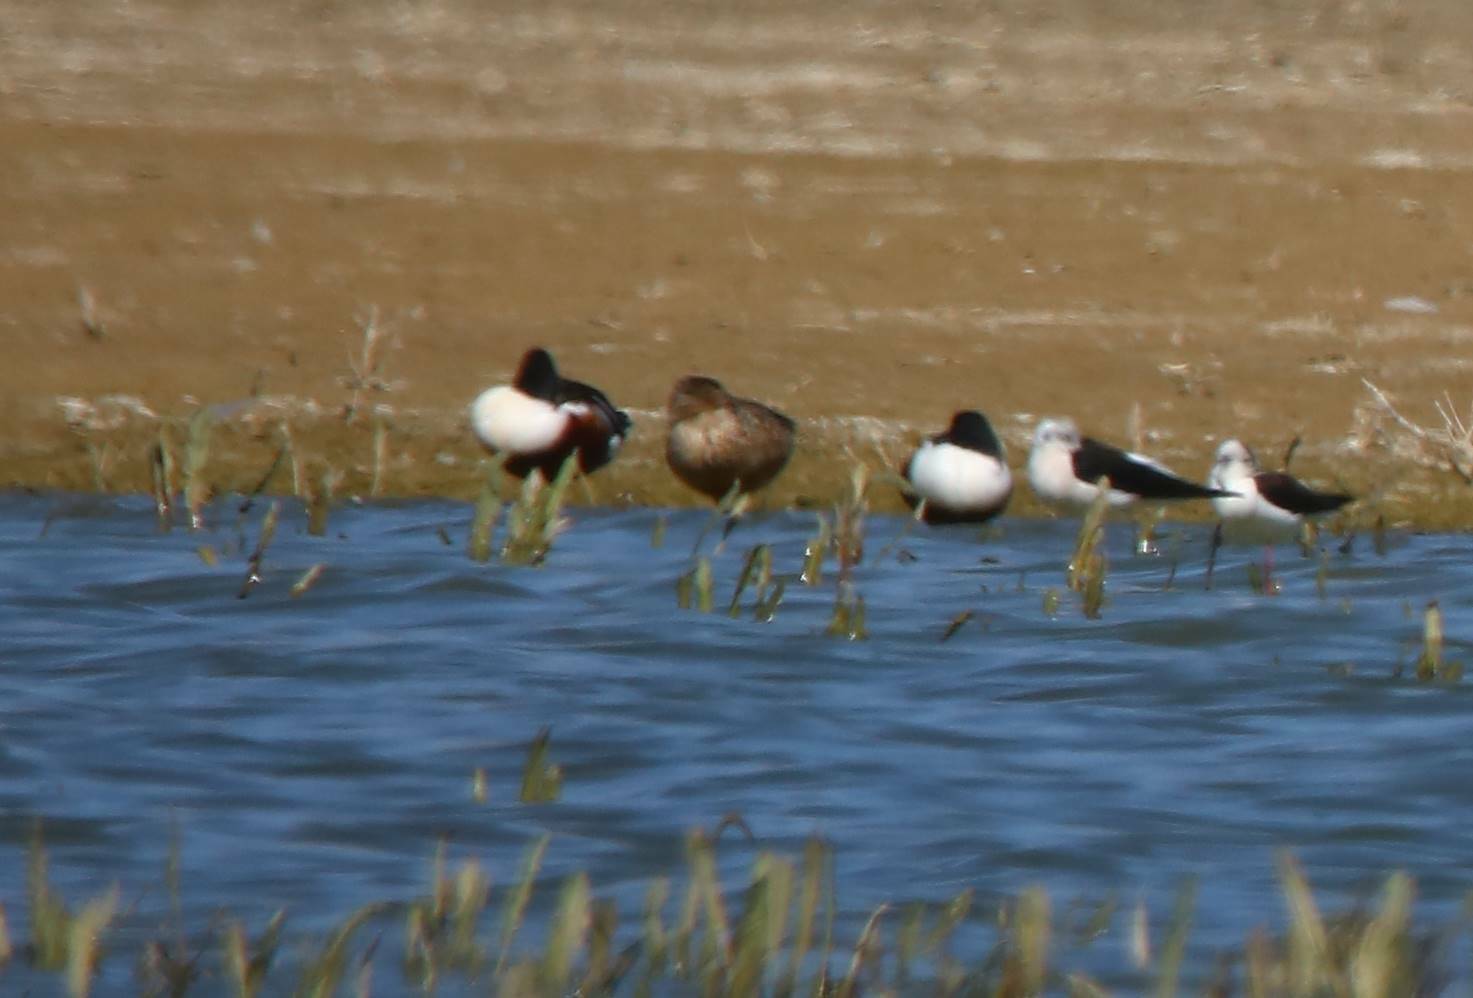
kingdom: Animalia
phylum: Chordata
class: Aves
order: Anseriformes
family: Anatidae
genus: Spatula
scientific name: Spatula clypeata
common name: Northern shoveler
